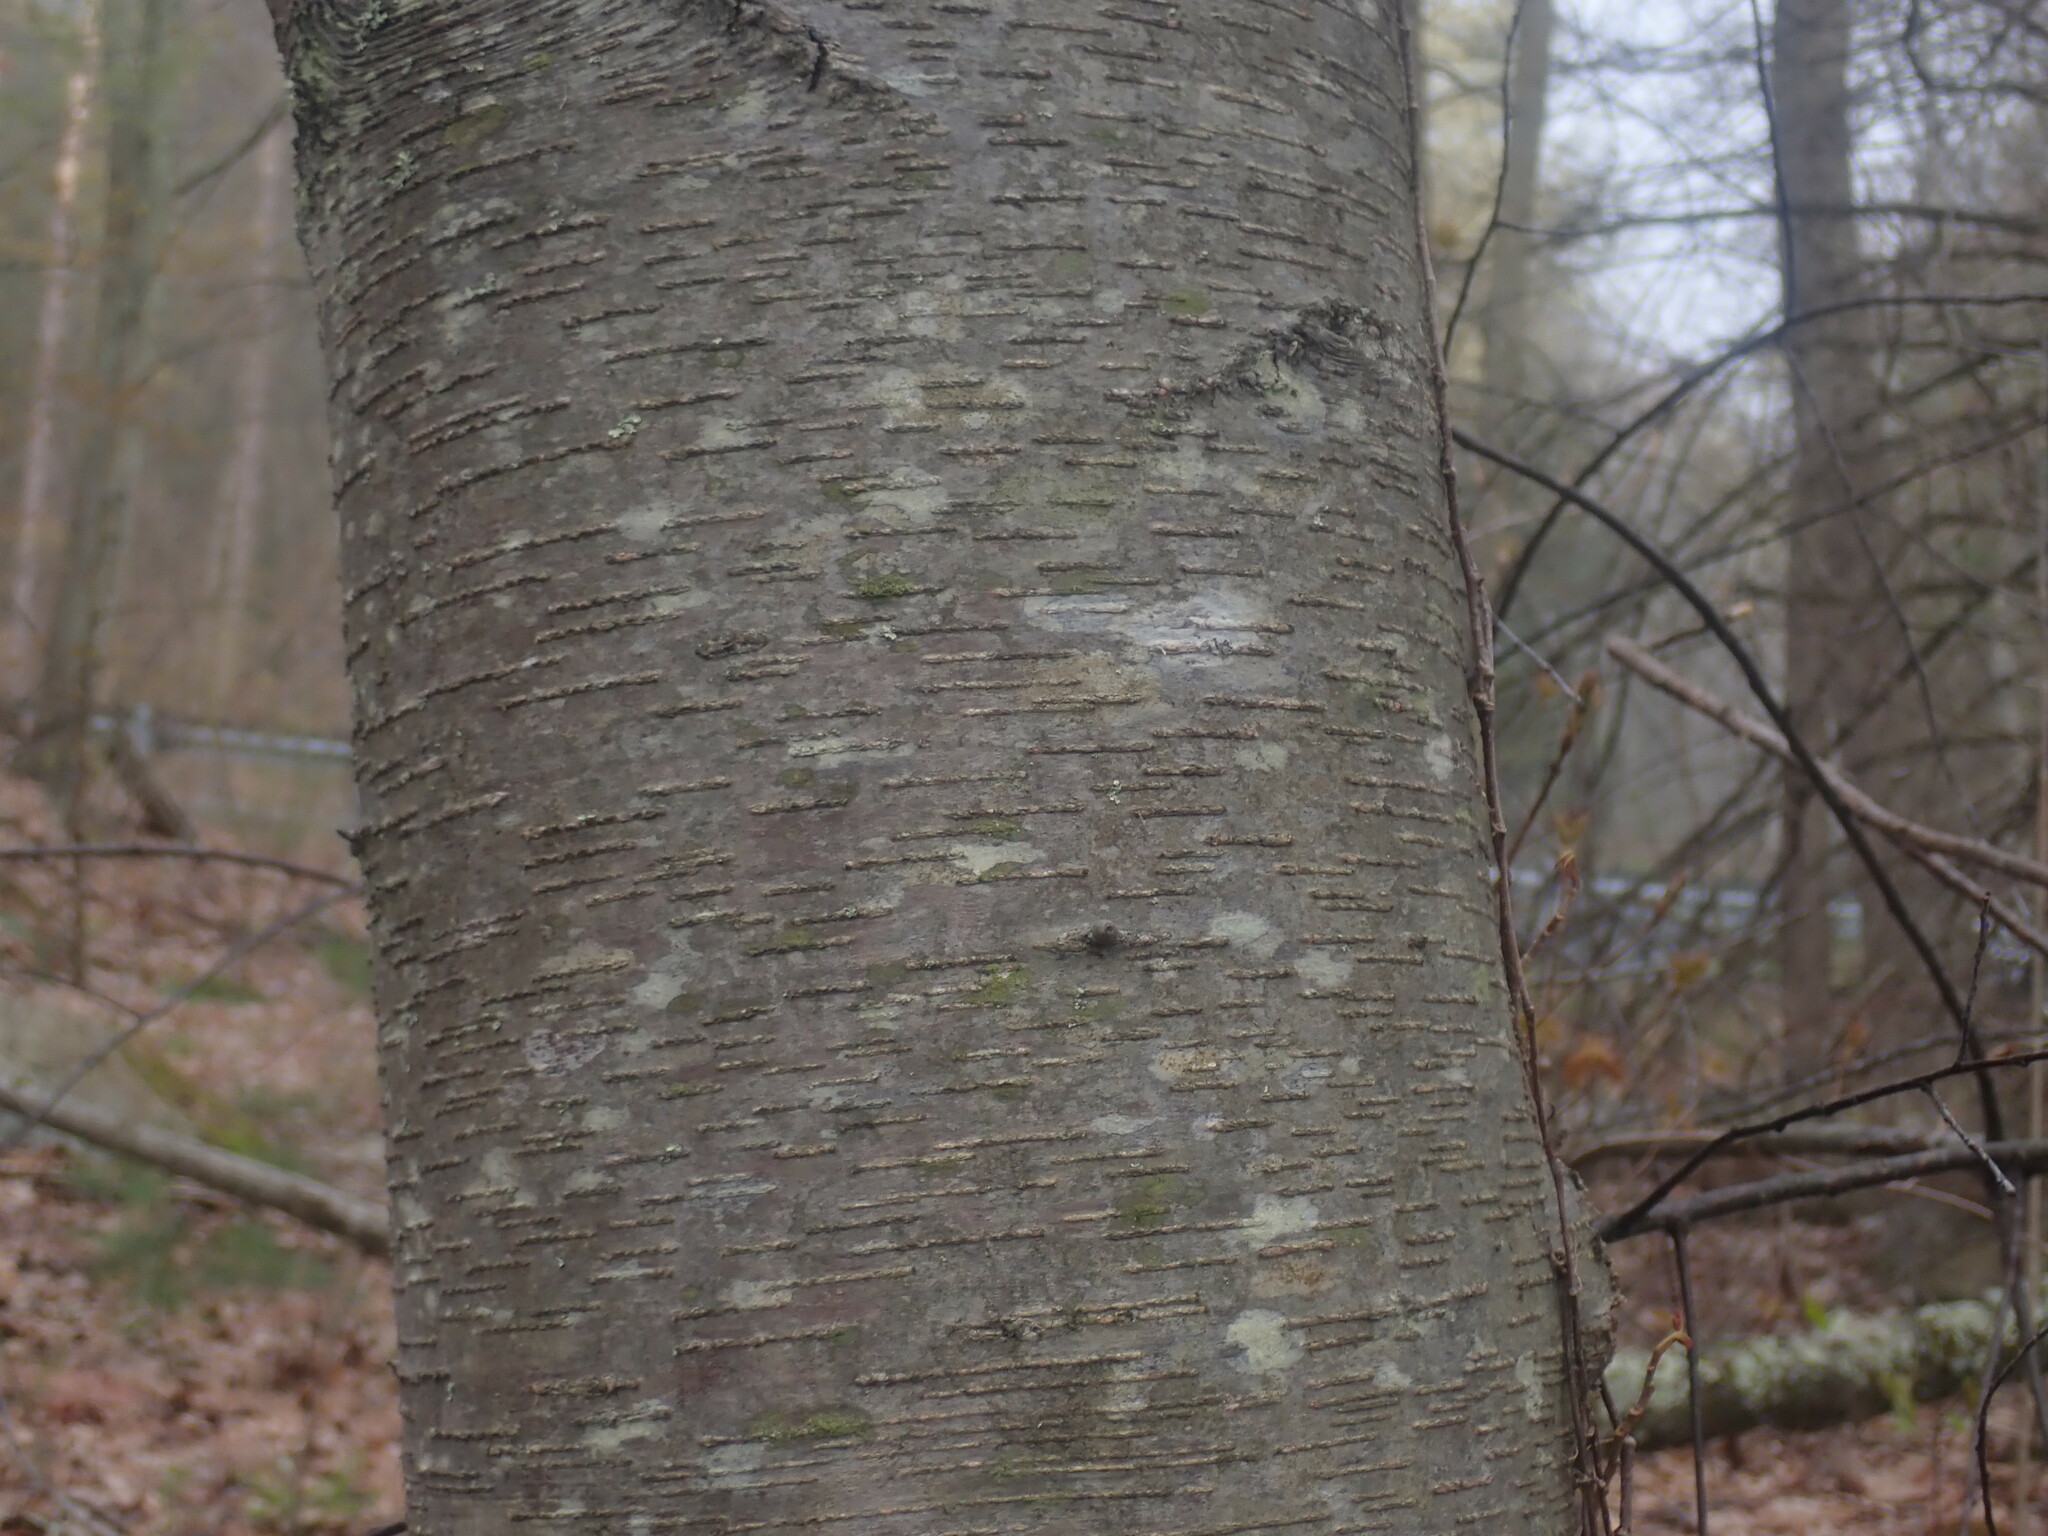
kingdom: Plantae
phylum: Tracheophyta
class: Magnoliopsida
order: Fagales
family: Betulaceae
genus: Betula
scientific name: Betula lenta
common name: Black birch
